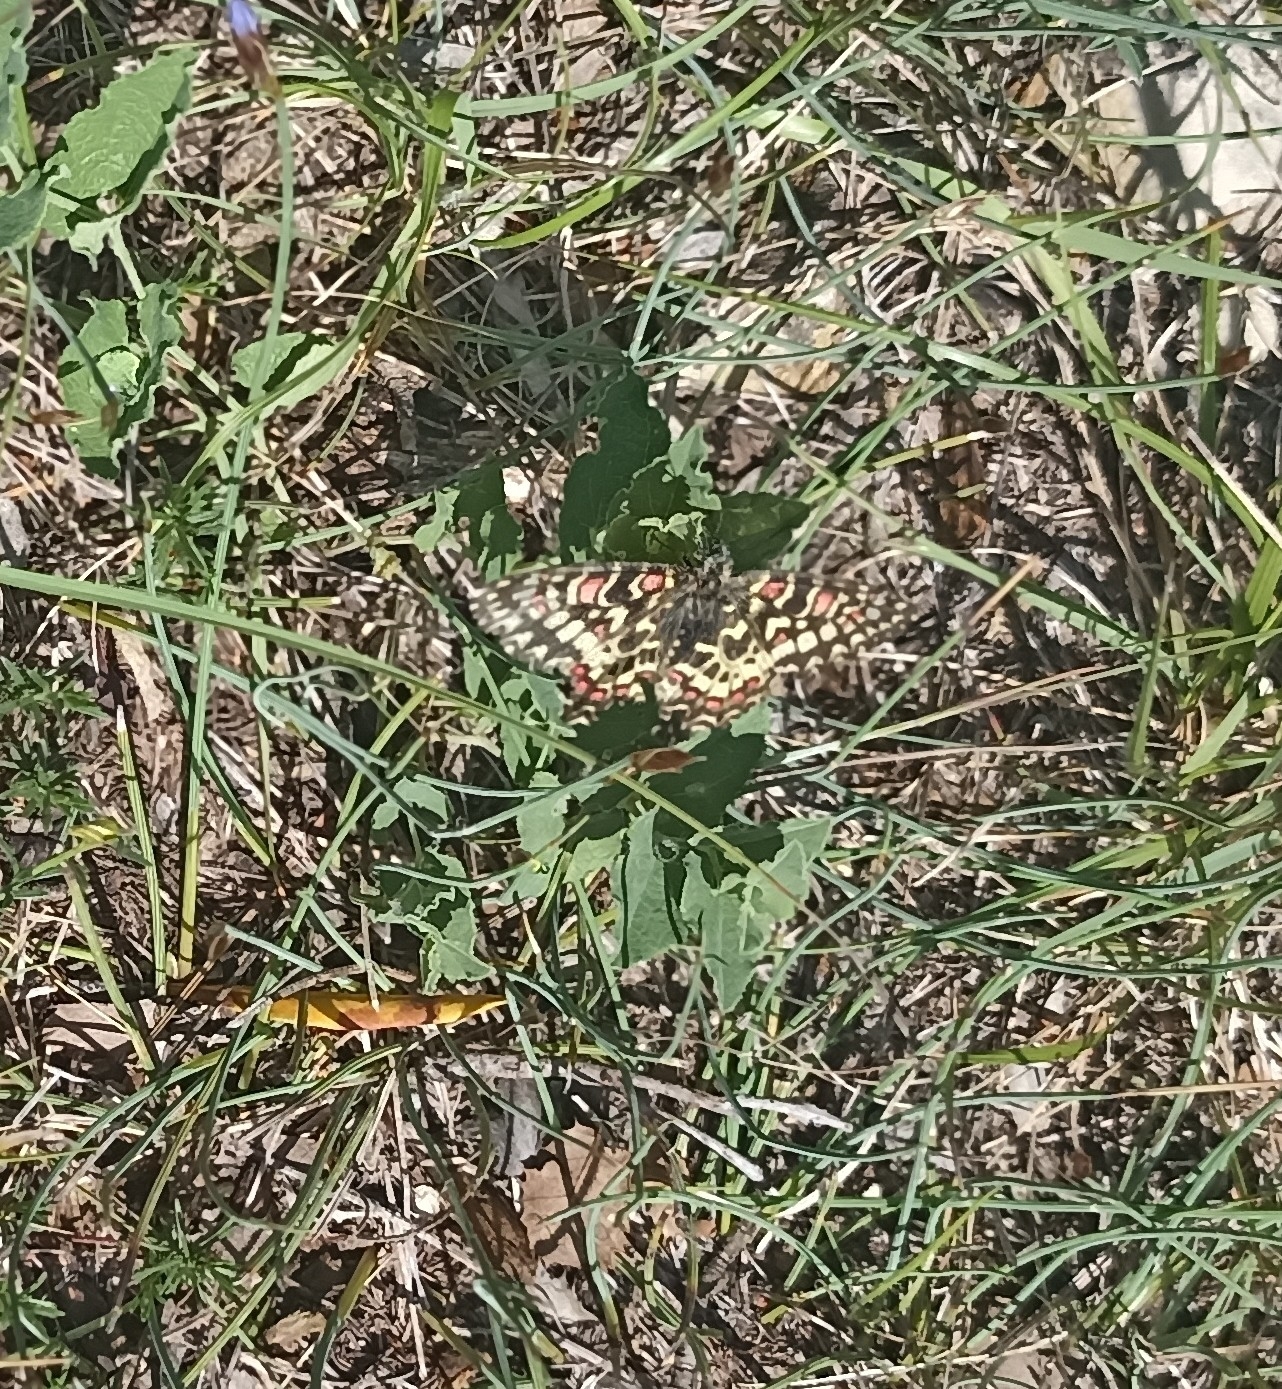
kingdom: Animalia
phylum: Arthropoda
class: Insecta
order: Lepidoptera
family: Papilionidae
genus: Zerynthia
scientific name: Zerynthia rumina
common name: Spanish festoon
